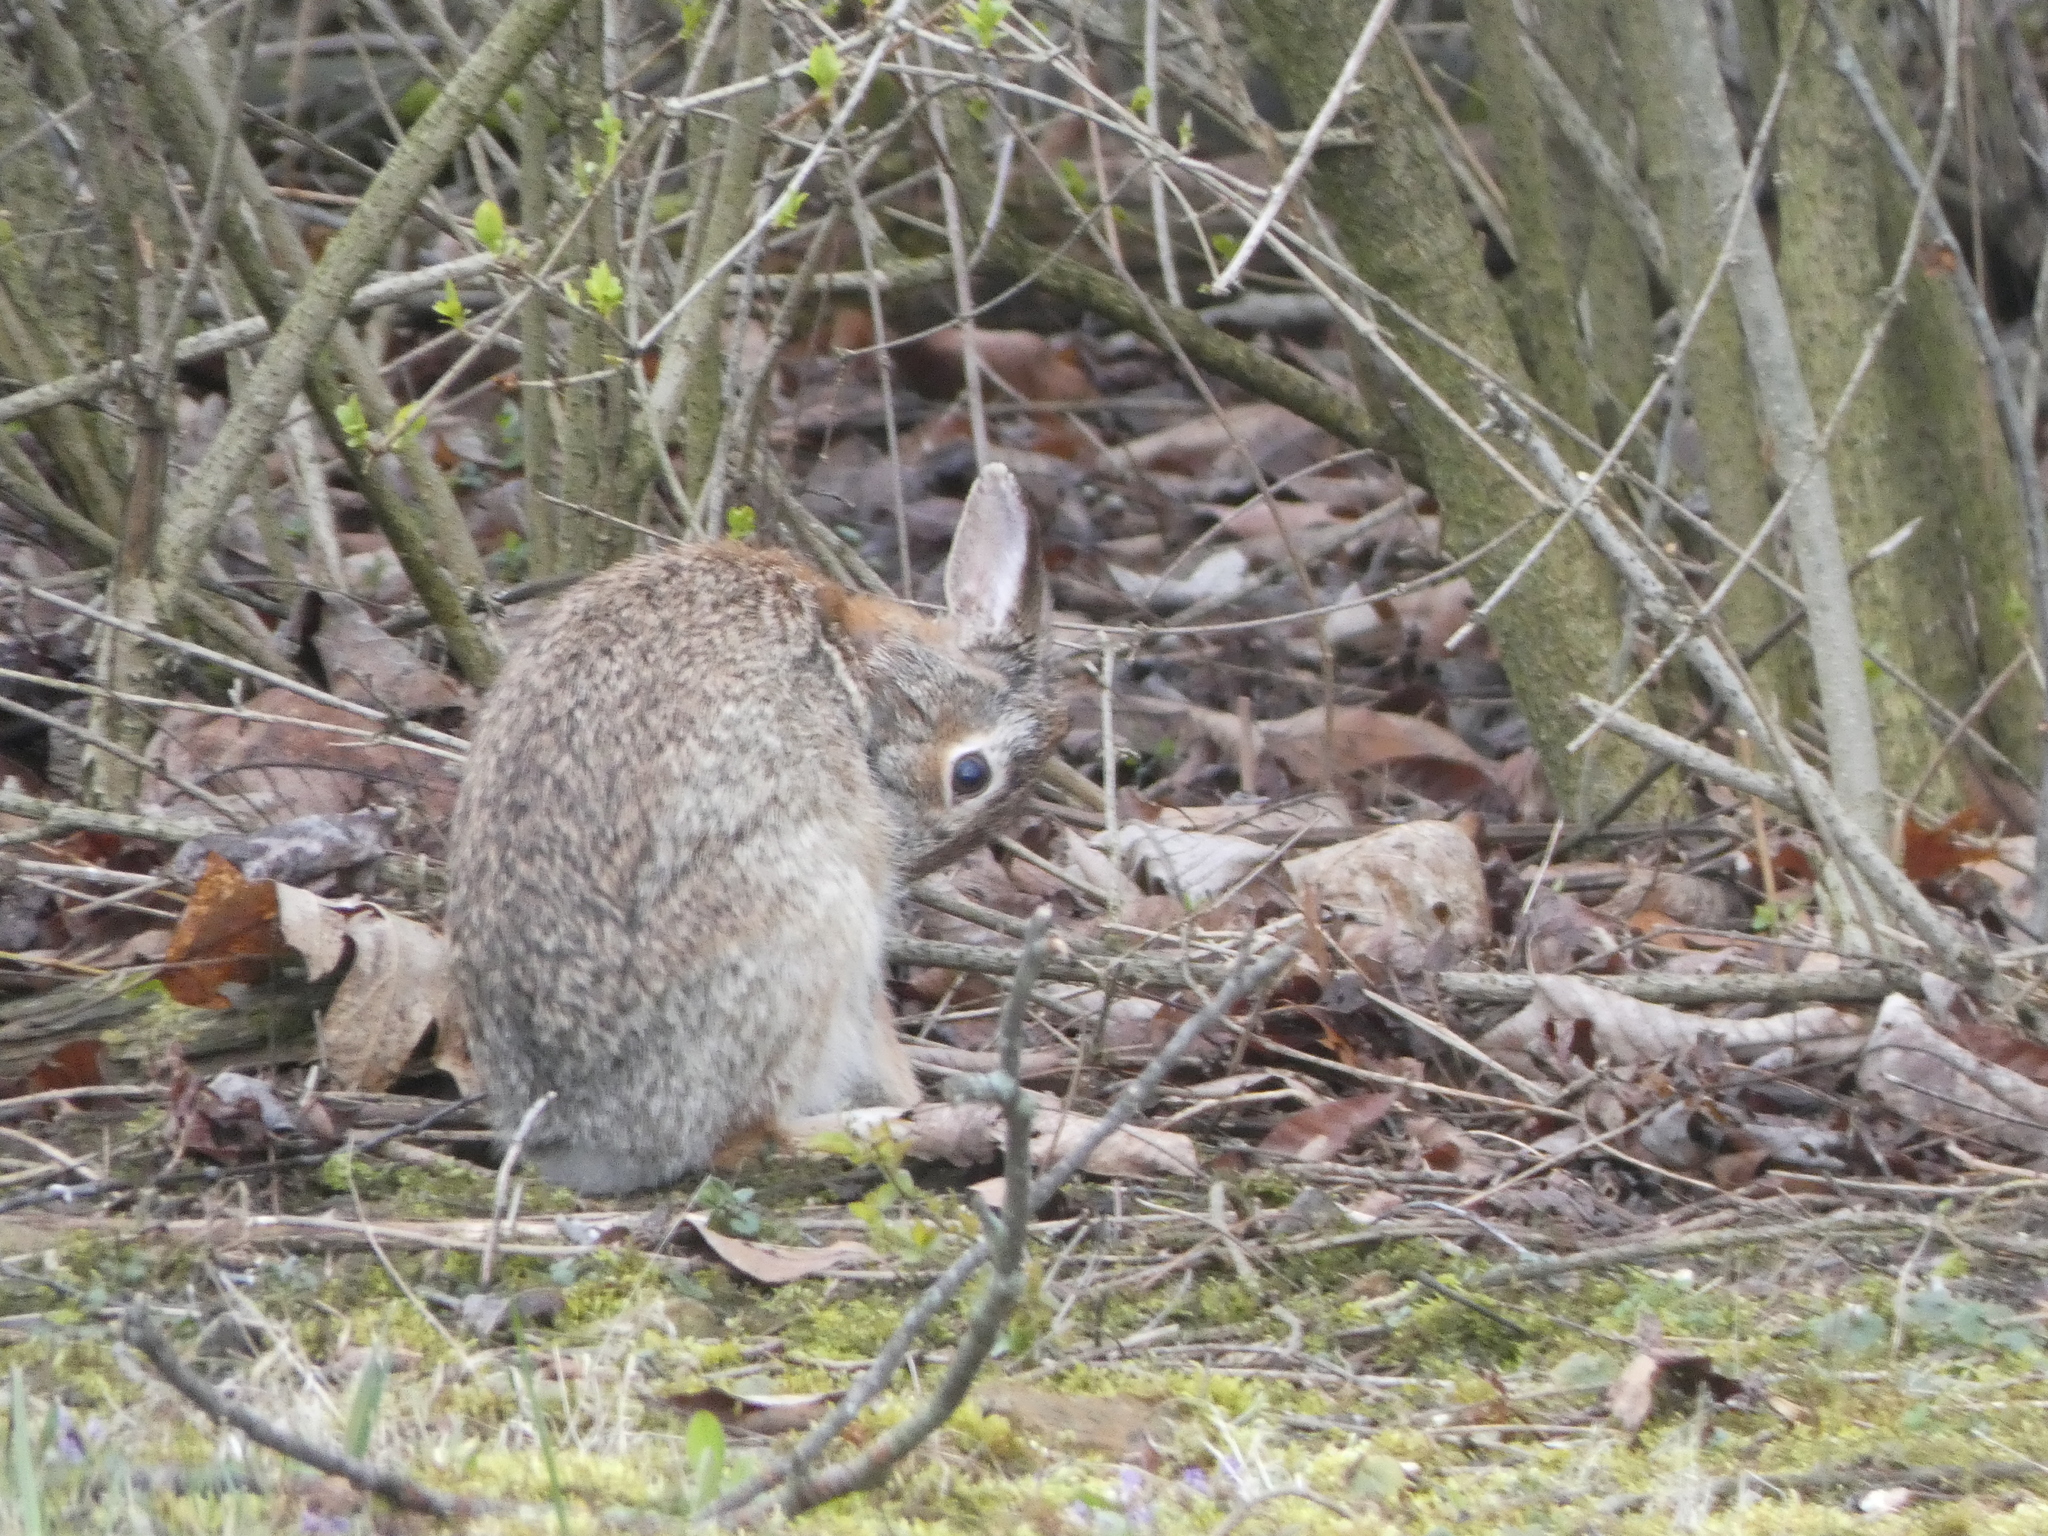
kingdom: Animalia
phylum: Chordata
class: Mammalia
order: Lagomorpha
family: Leporidae
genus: Sylvilagus
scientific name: Sylvilagus floridanus
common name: Eastern cottontail
